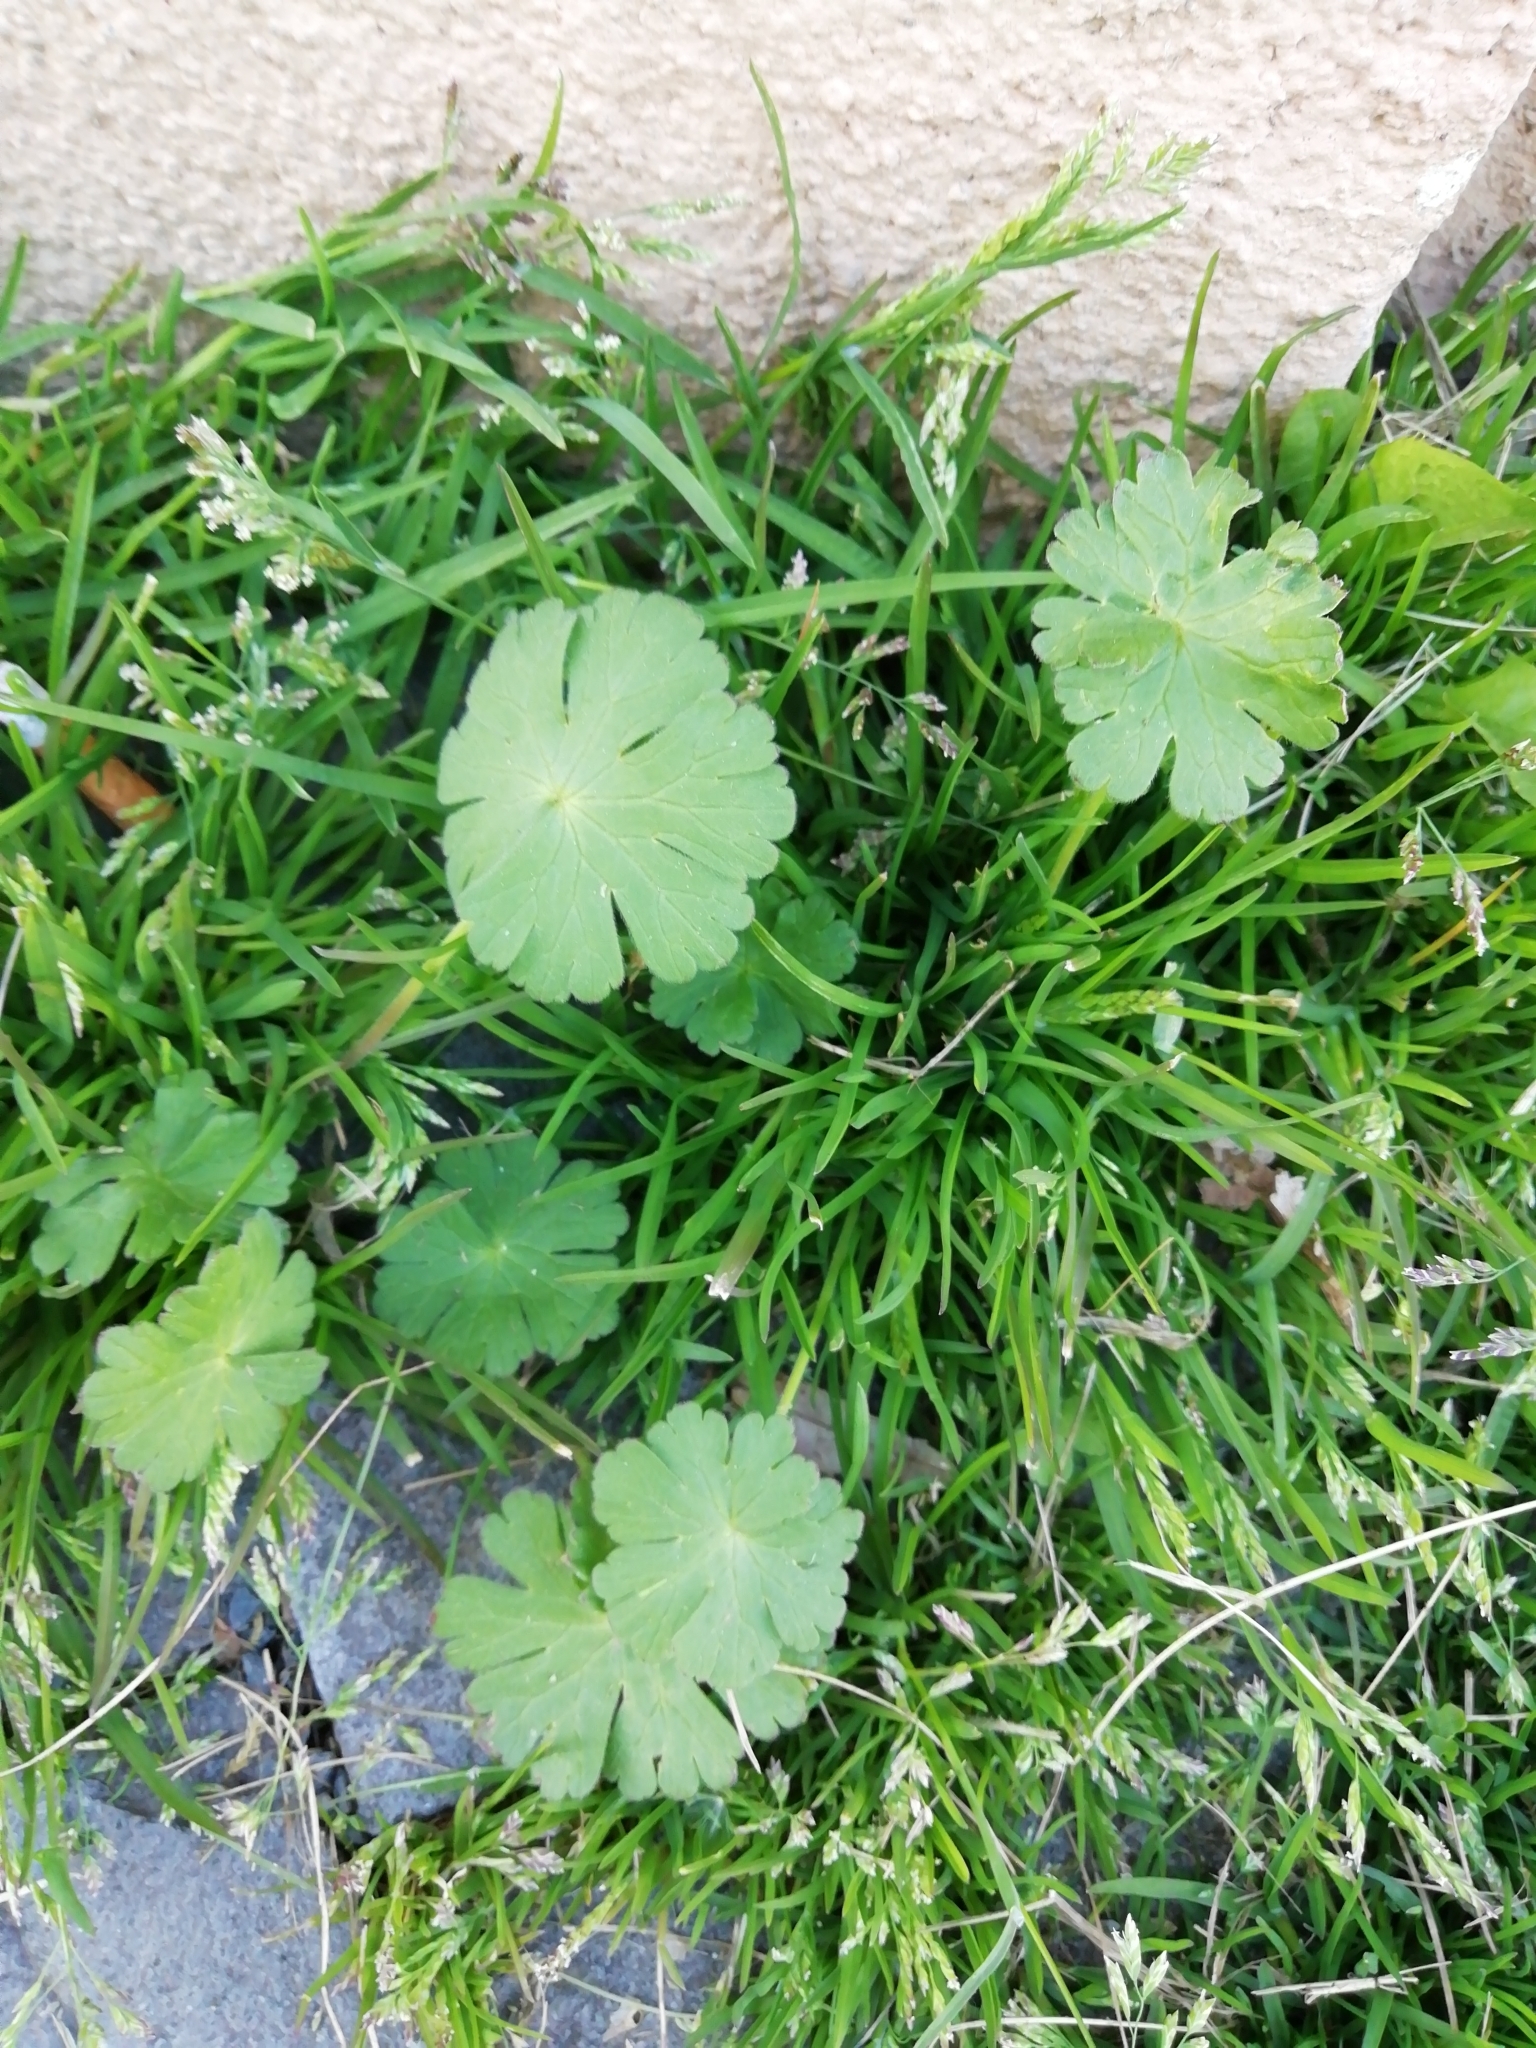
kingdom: Plantae
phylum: Tracheophyta
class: Magnoliopsida
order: Geraniales
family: Geraniaceae
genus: Geranium
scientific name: Geranium pusillum
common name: Small geranium
